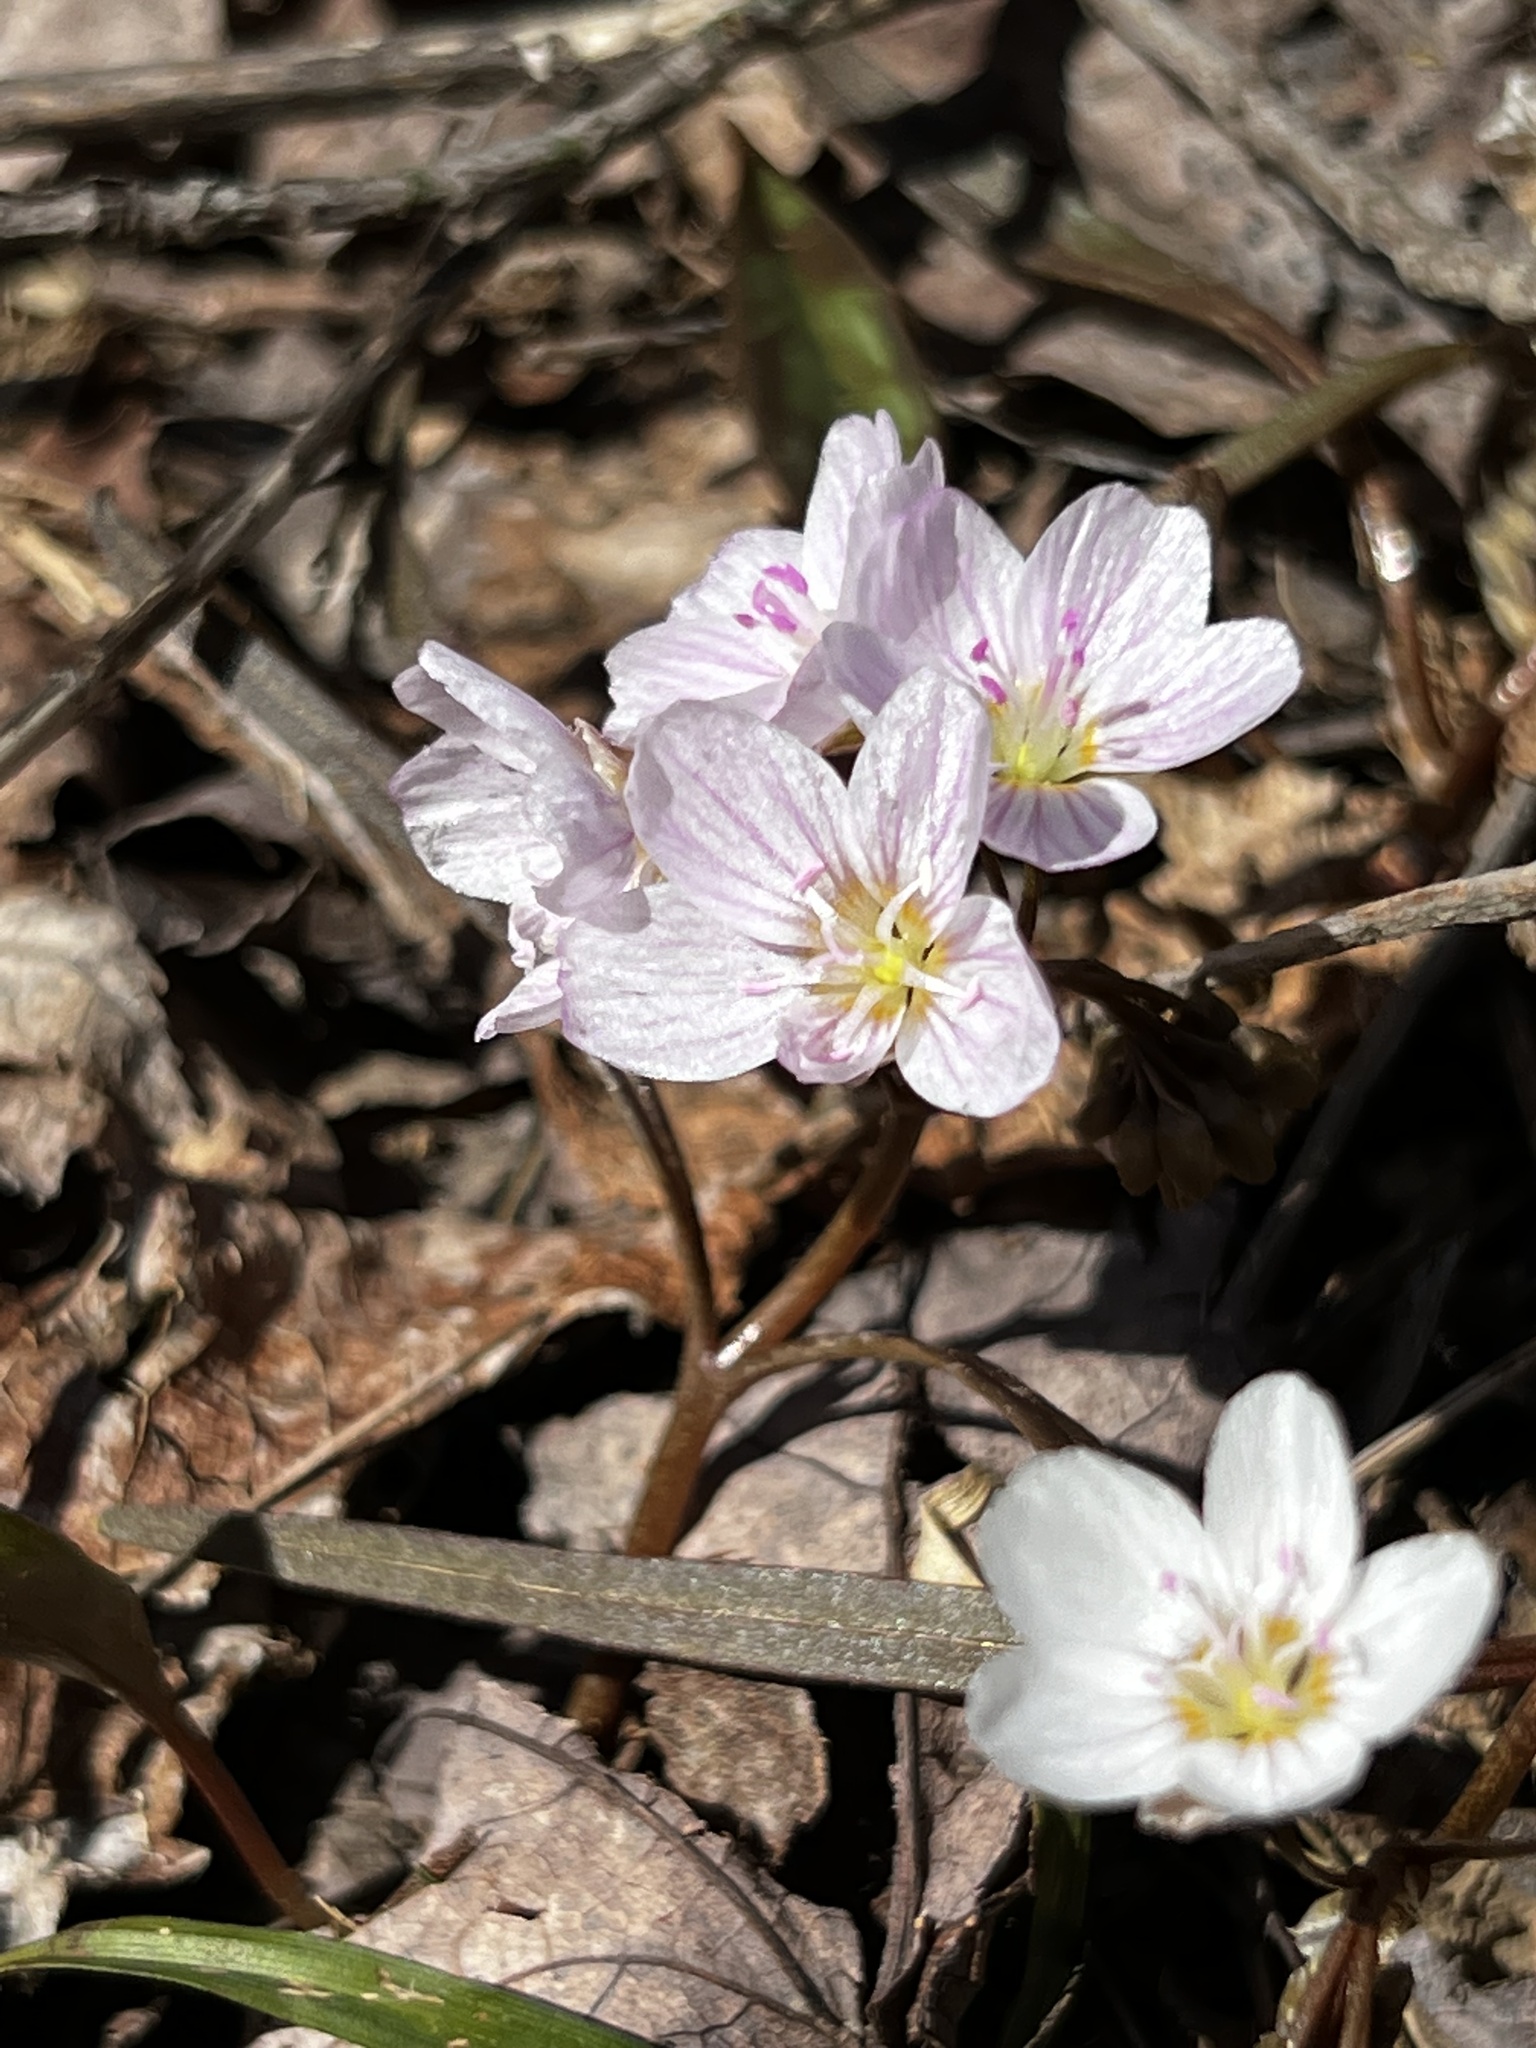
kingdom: Plantae
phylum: Tracheophyta
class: Magnoliopsida
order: Caryophyllales
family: Montiaceae
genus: Claytonia
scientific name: Claytonia virginica
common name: Virginia springbeauty
